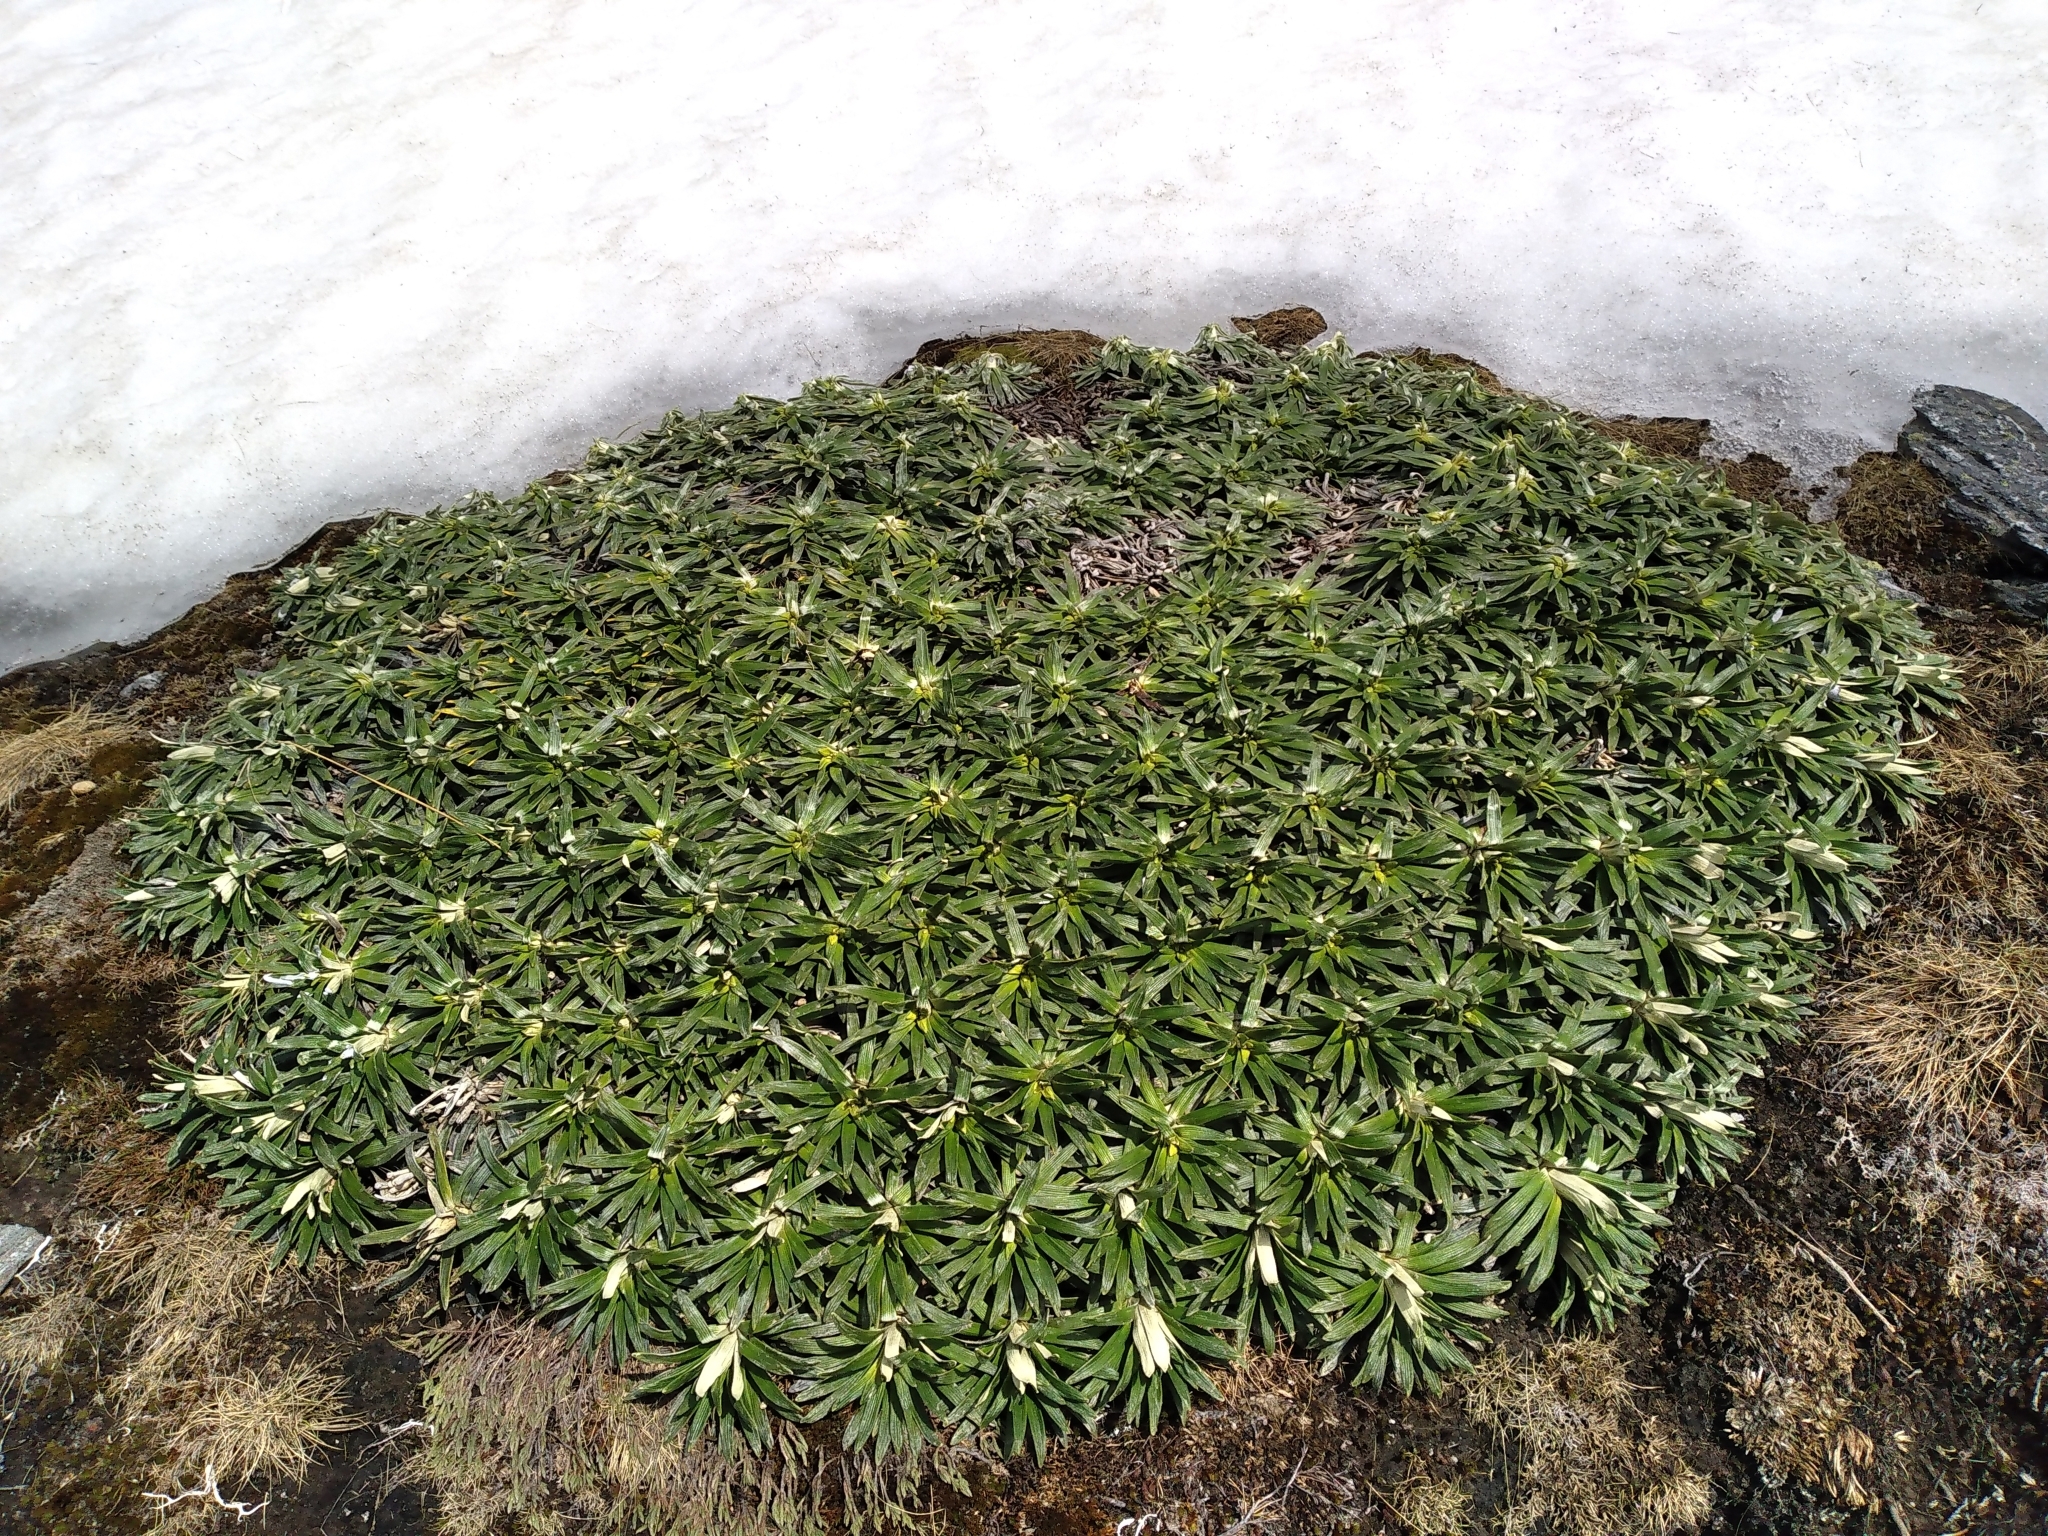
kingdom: Plantae
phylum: Tracheophyta
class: Magnoliopsida
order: Asterales
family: Asteraceae
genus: Celmisia
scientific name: Celmisia viscosa
